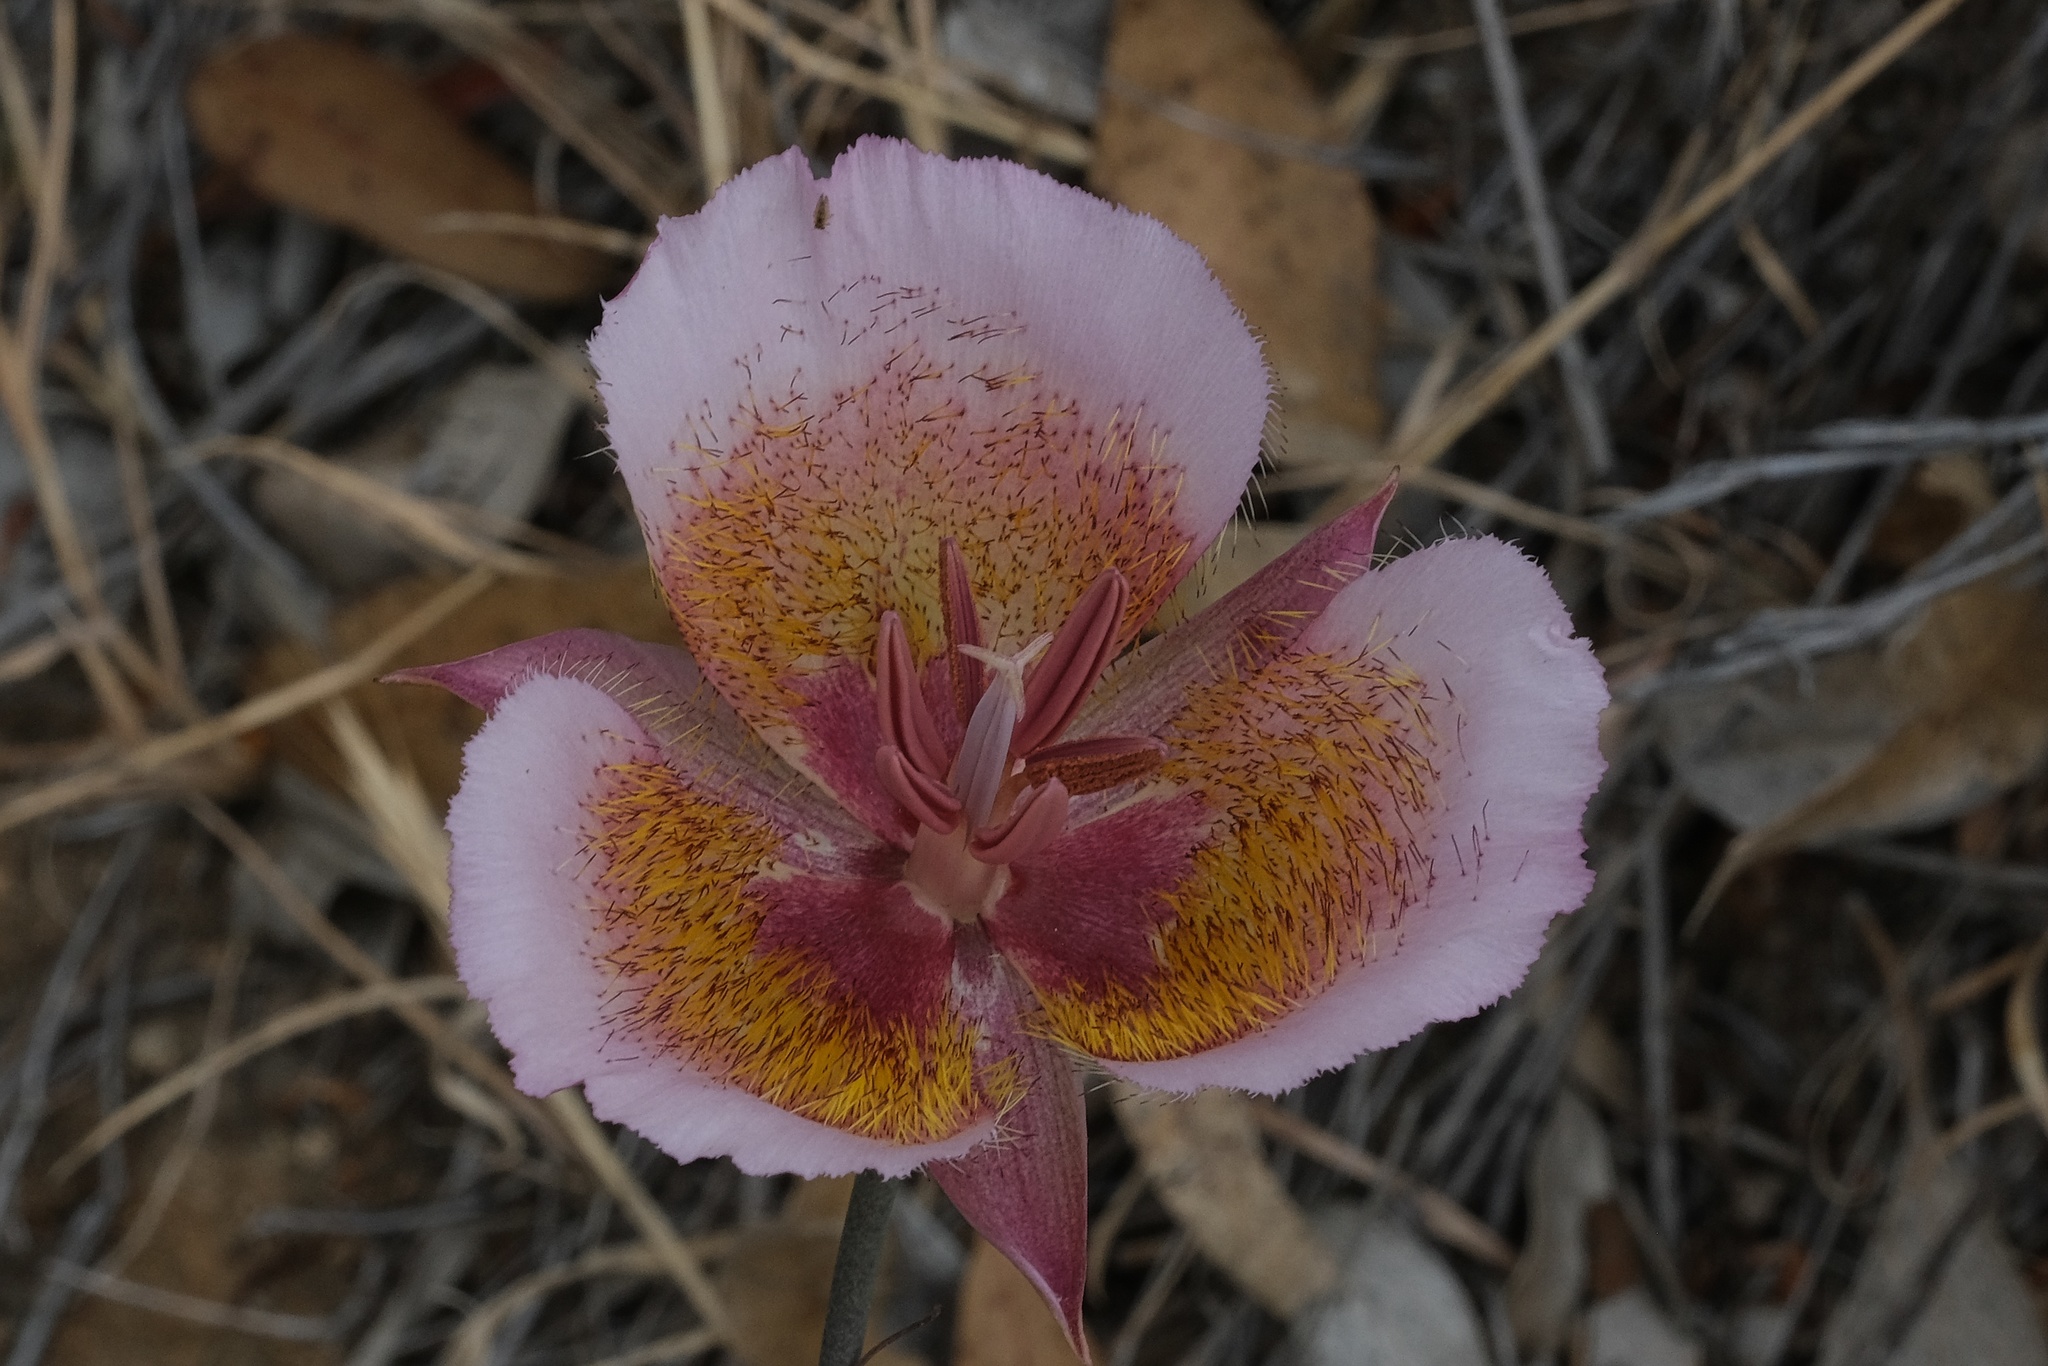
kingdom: Plantae
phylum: Tracheophyta
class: Liliopsida
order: Liliales
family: Liliaceae
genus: Calochortus
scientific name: Calochortus plummerae
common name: Plummer's mariposa-lily
